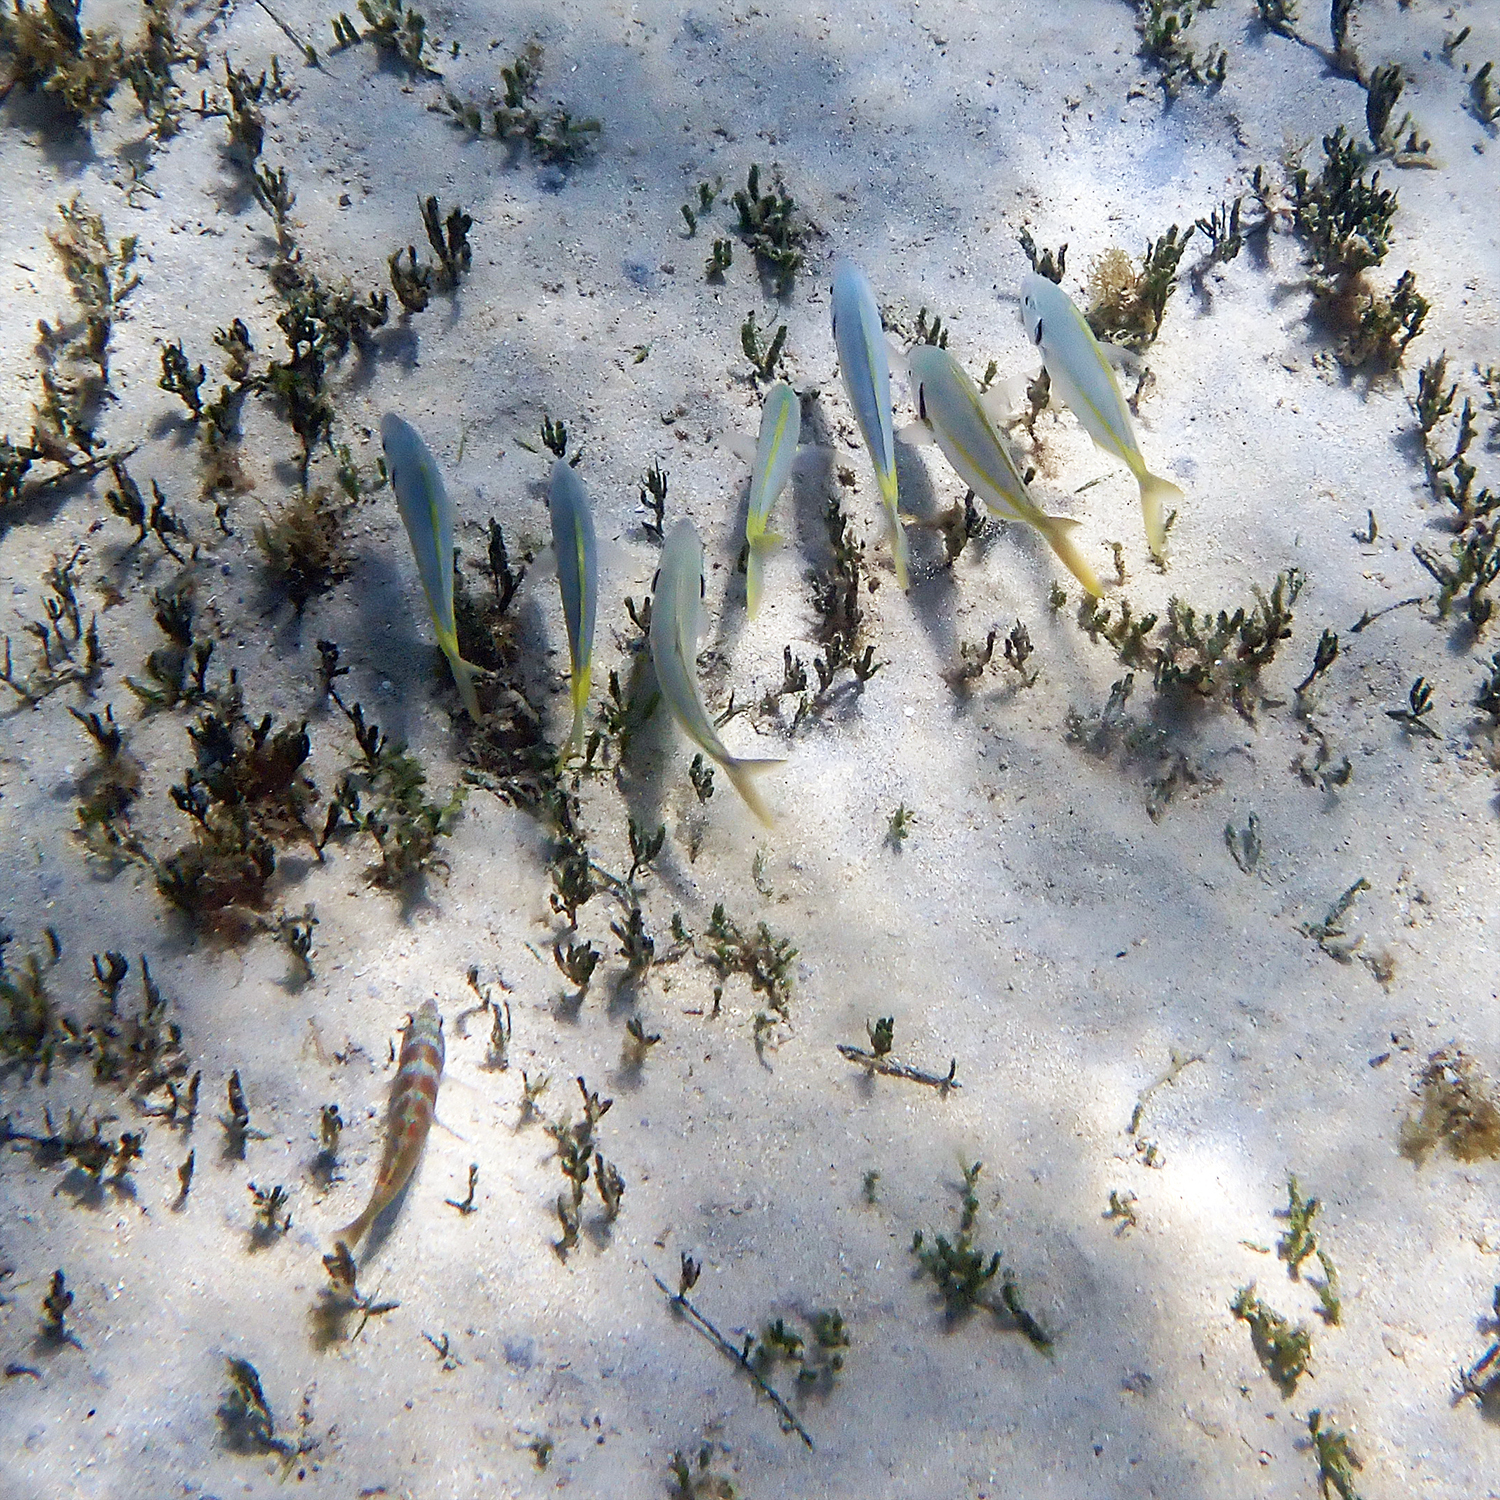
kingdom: Animalia
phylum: Chordata
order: Perciformes
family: Carangidae
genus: Pseudocaranx
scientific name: Pseudocaranx dentex
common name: White trevally
